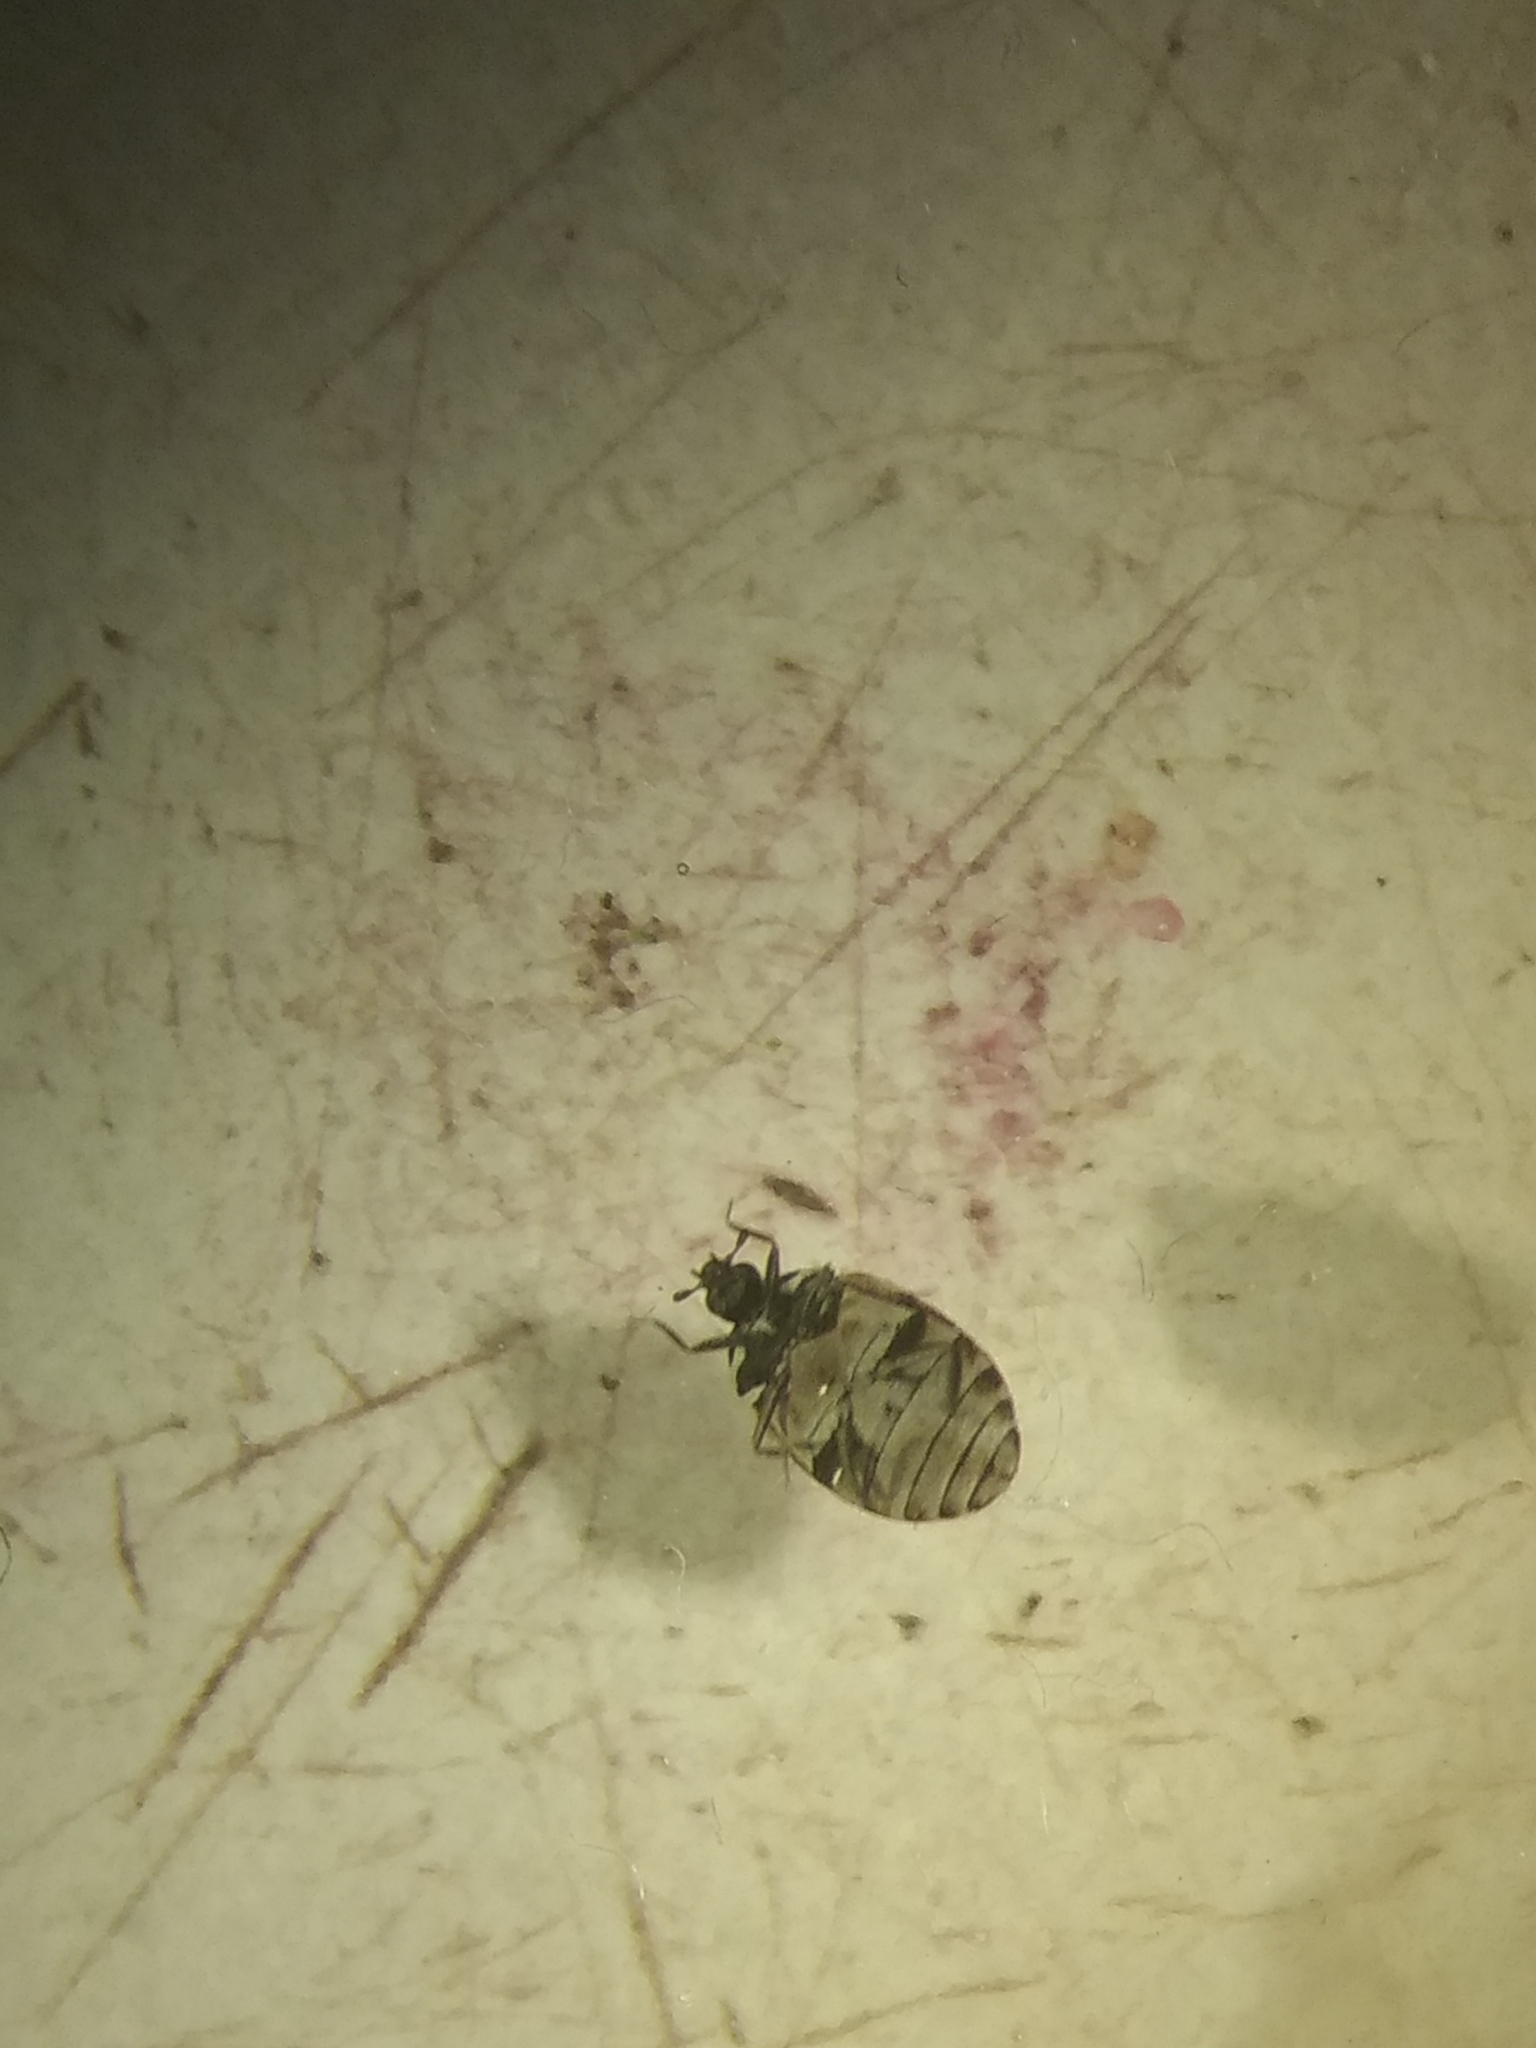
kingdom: Animalia
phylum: Arthropoda
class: Insecta
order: Coleoptera
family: Dermestidae
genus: Anthrenus
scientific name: Anthrenus verbasci
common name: Varied carpet beetle
